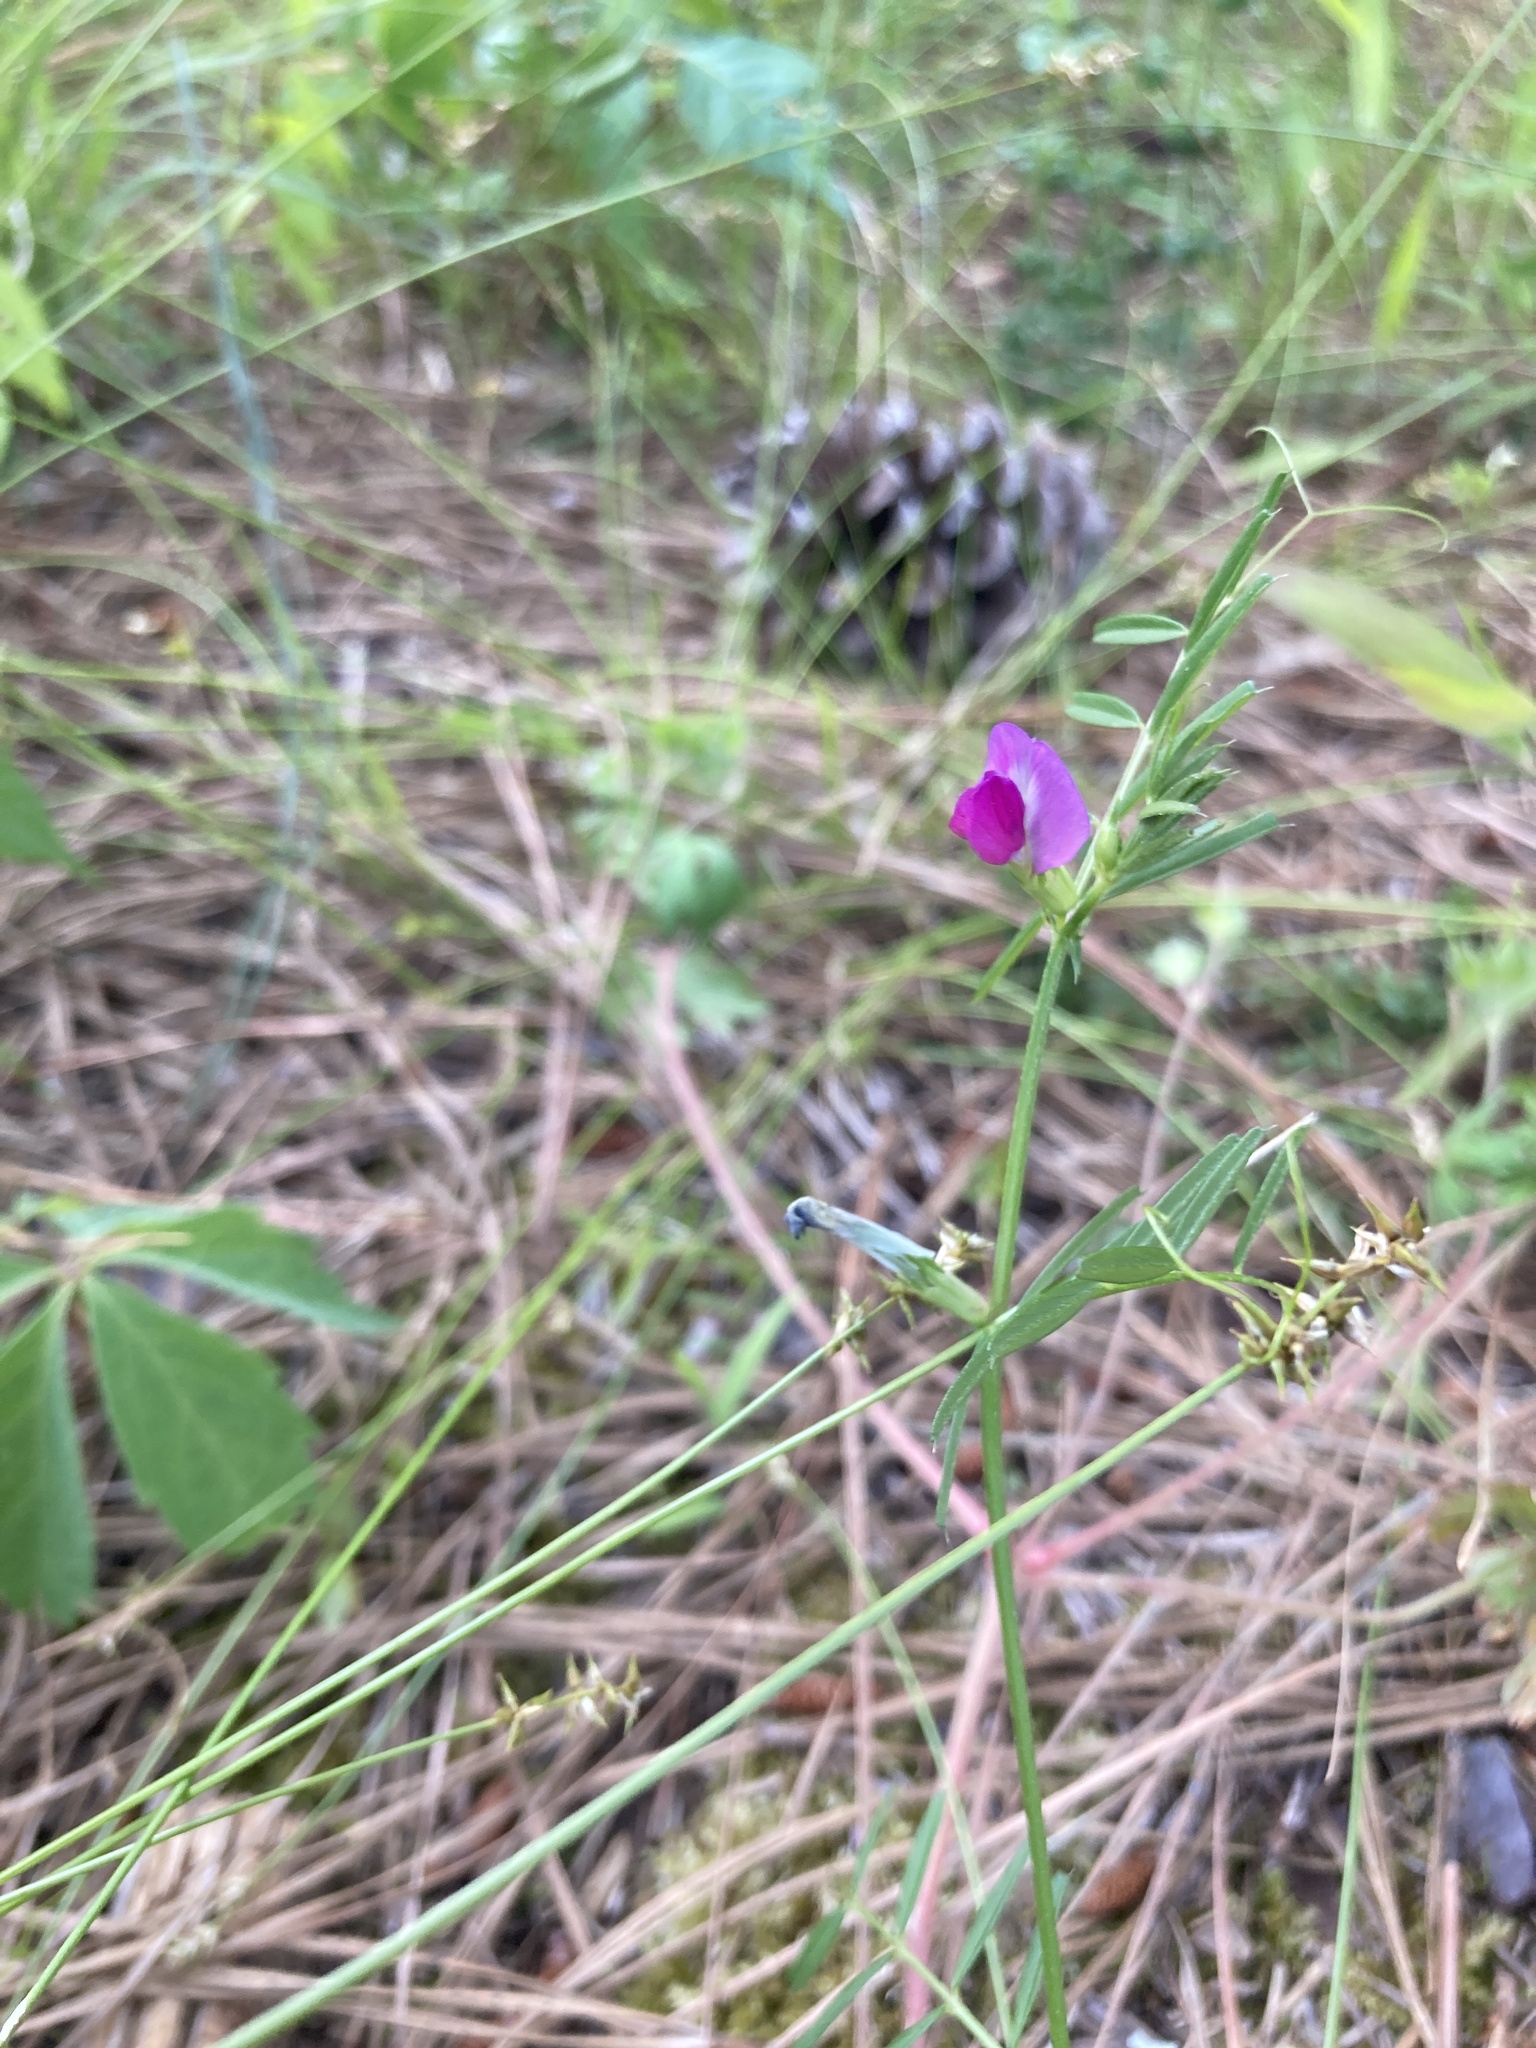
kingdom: Plantae
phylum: Tracheophyta
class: Magnoliopsida
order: Fabales
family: Fabaceae
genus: Vicia
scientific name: Vicia sativa
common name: Garden vetch
